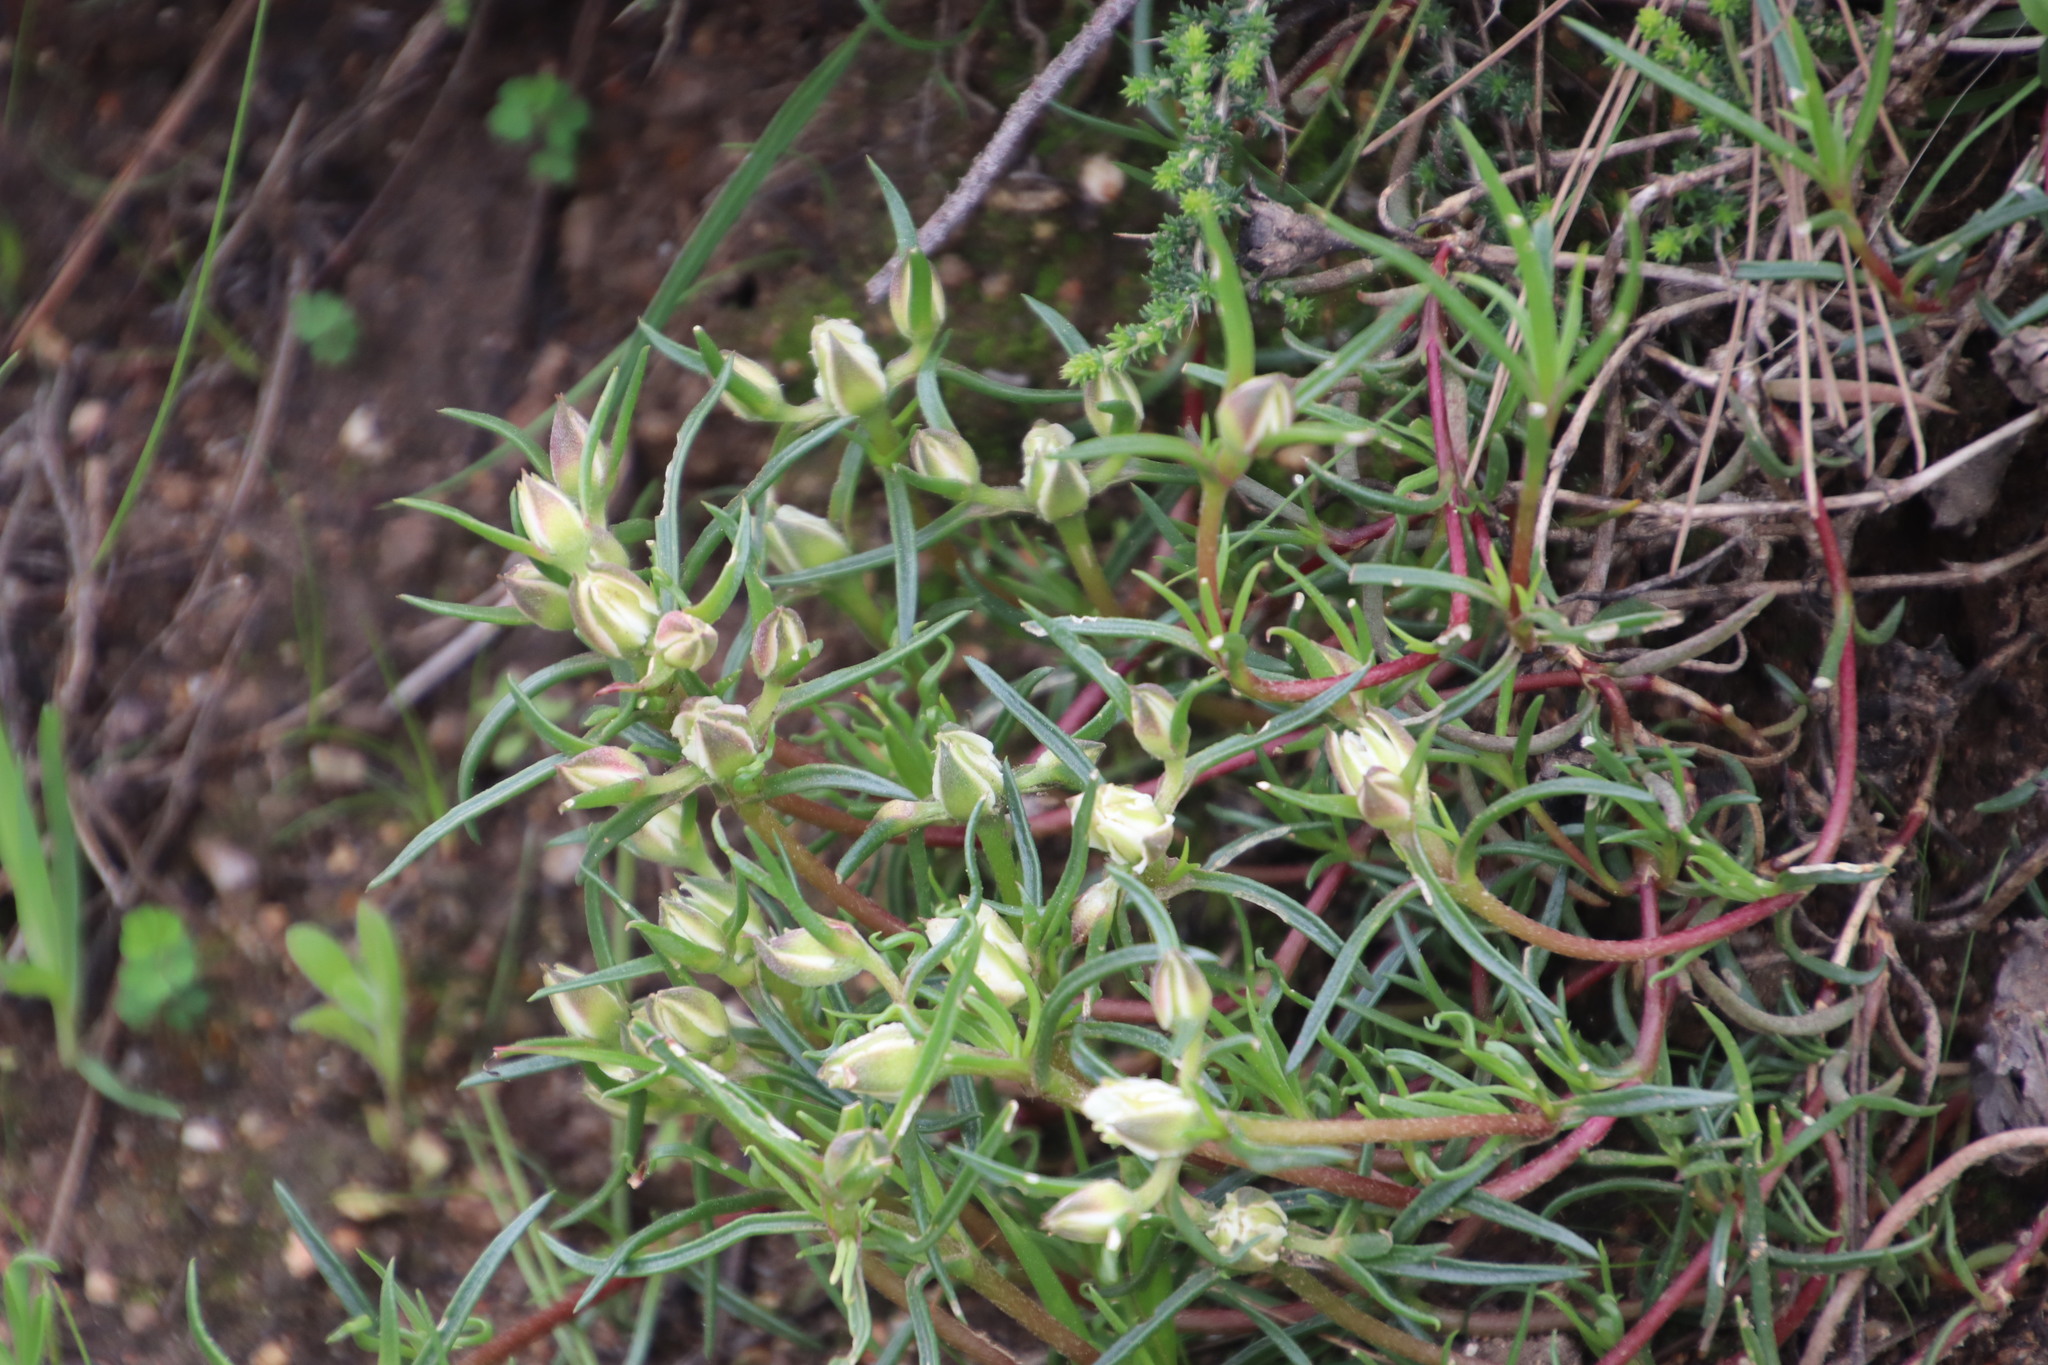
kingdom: Plantae
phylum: Tracheophyta
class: Magnoliopsida
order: Caryophyllales
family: Aizoaceae
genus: Aizoon
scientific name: Aizoon sarmentosum
